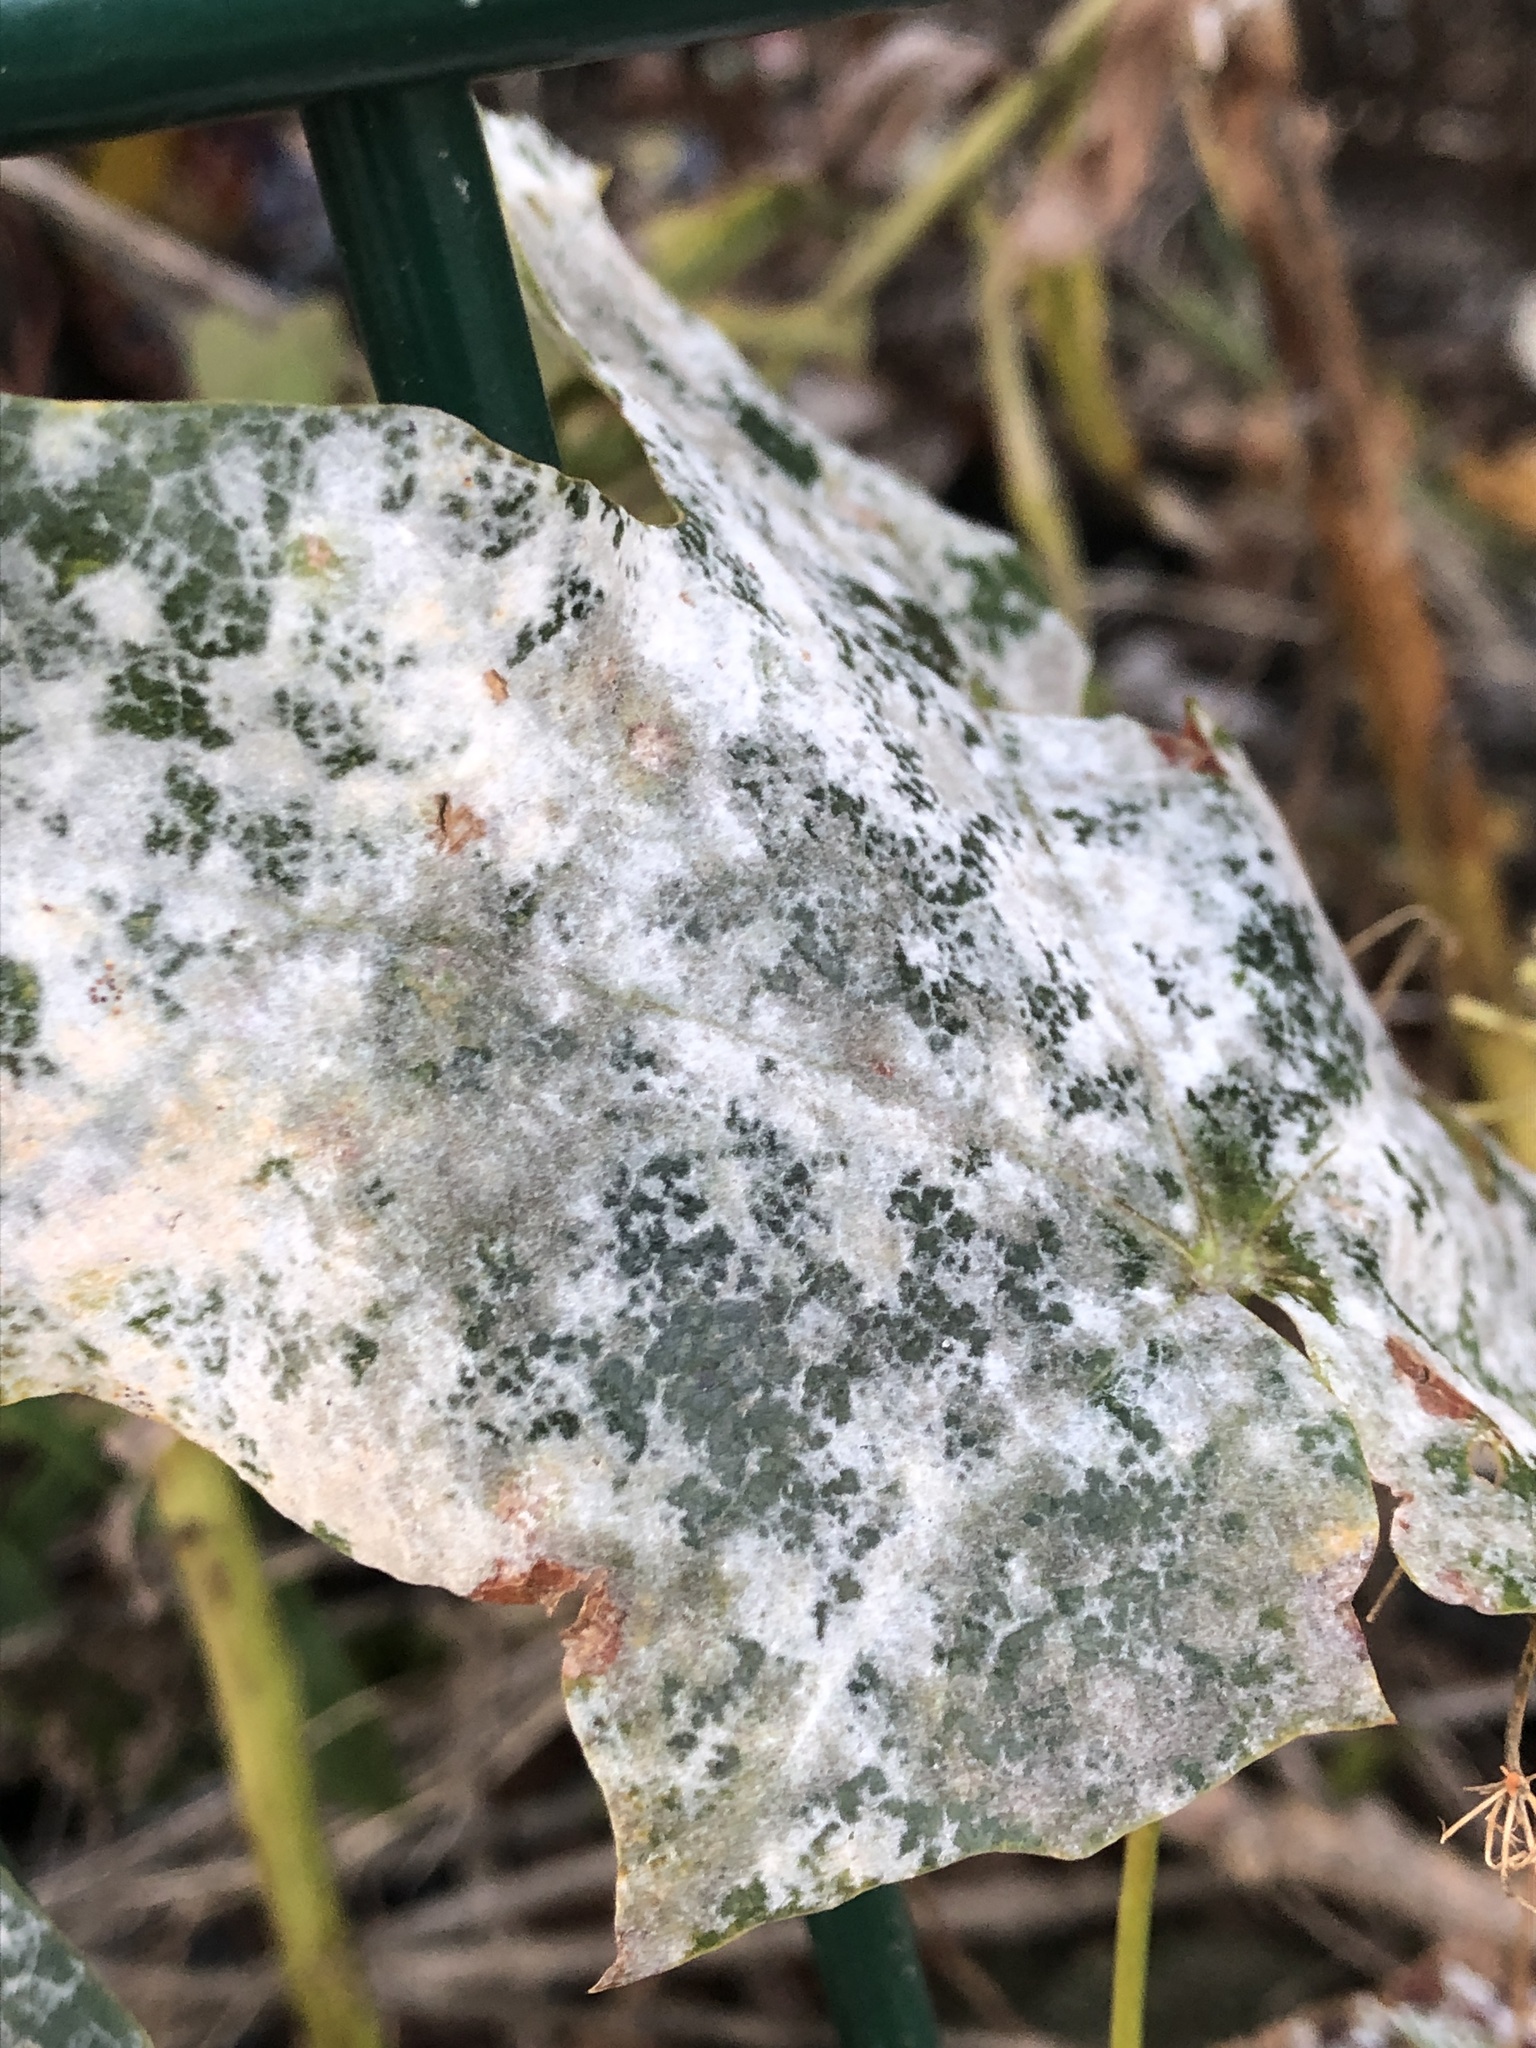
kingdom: Fungi
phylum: Ascomycota
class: Leotiomycetes
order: Helotiales
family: Erysiphaceae
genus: Sawadaea
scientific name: Sawadaea bicornis
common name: Maple mildew
